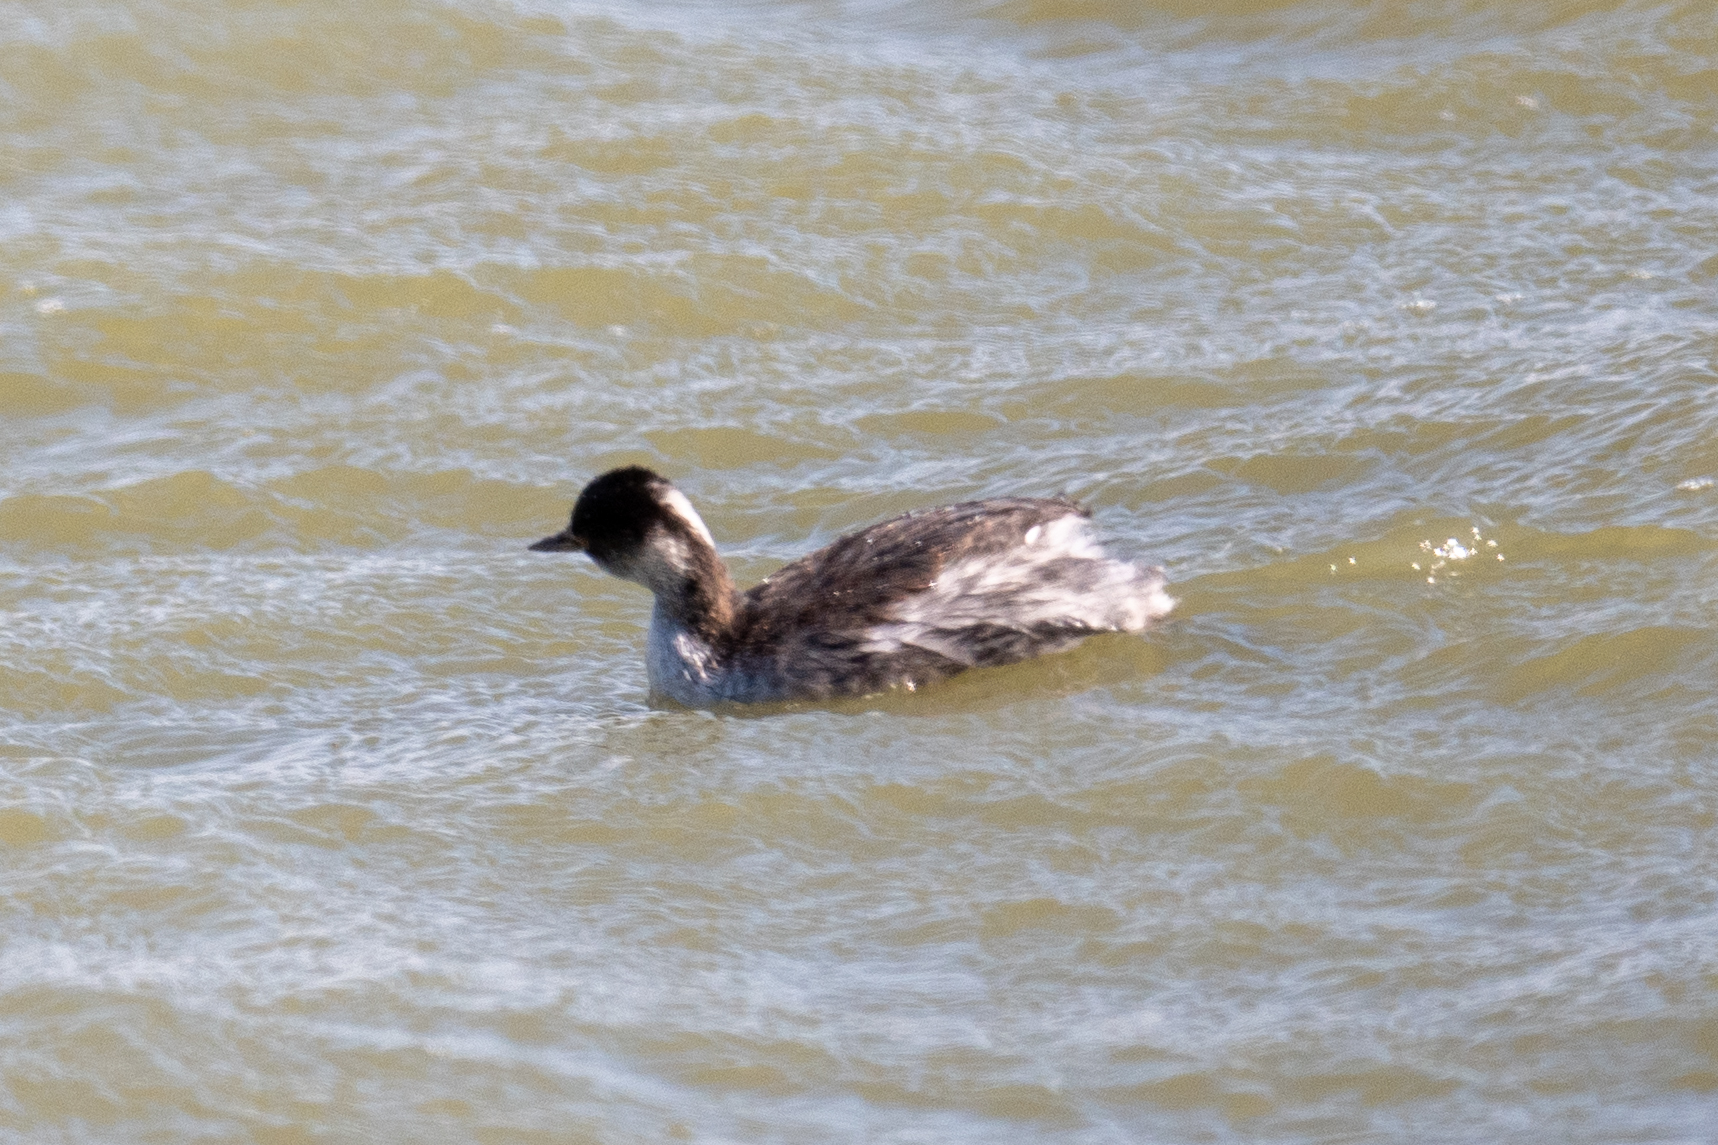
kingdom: Animalia
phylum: Chordata
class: Aves
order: Podicipediformes
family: Podicipedidae
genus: Podiceps
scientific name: Podiceps nigricollis
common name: Black-necked grebe
